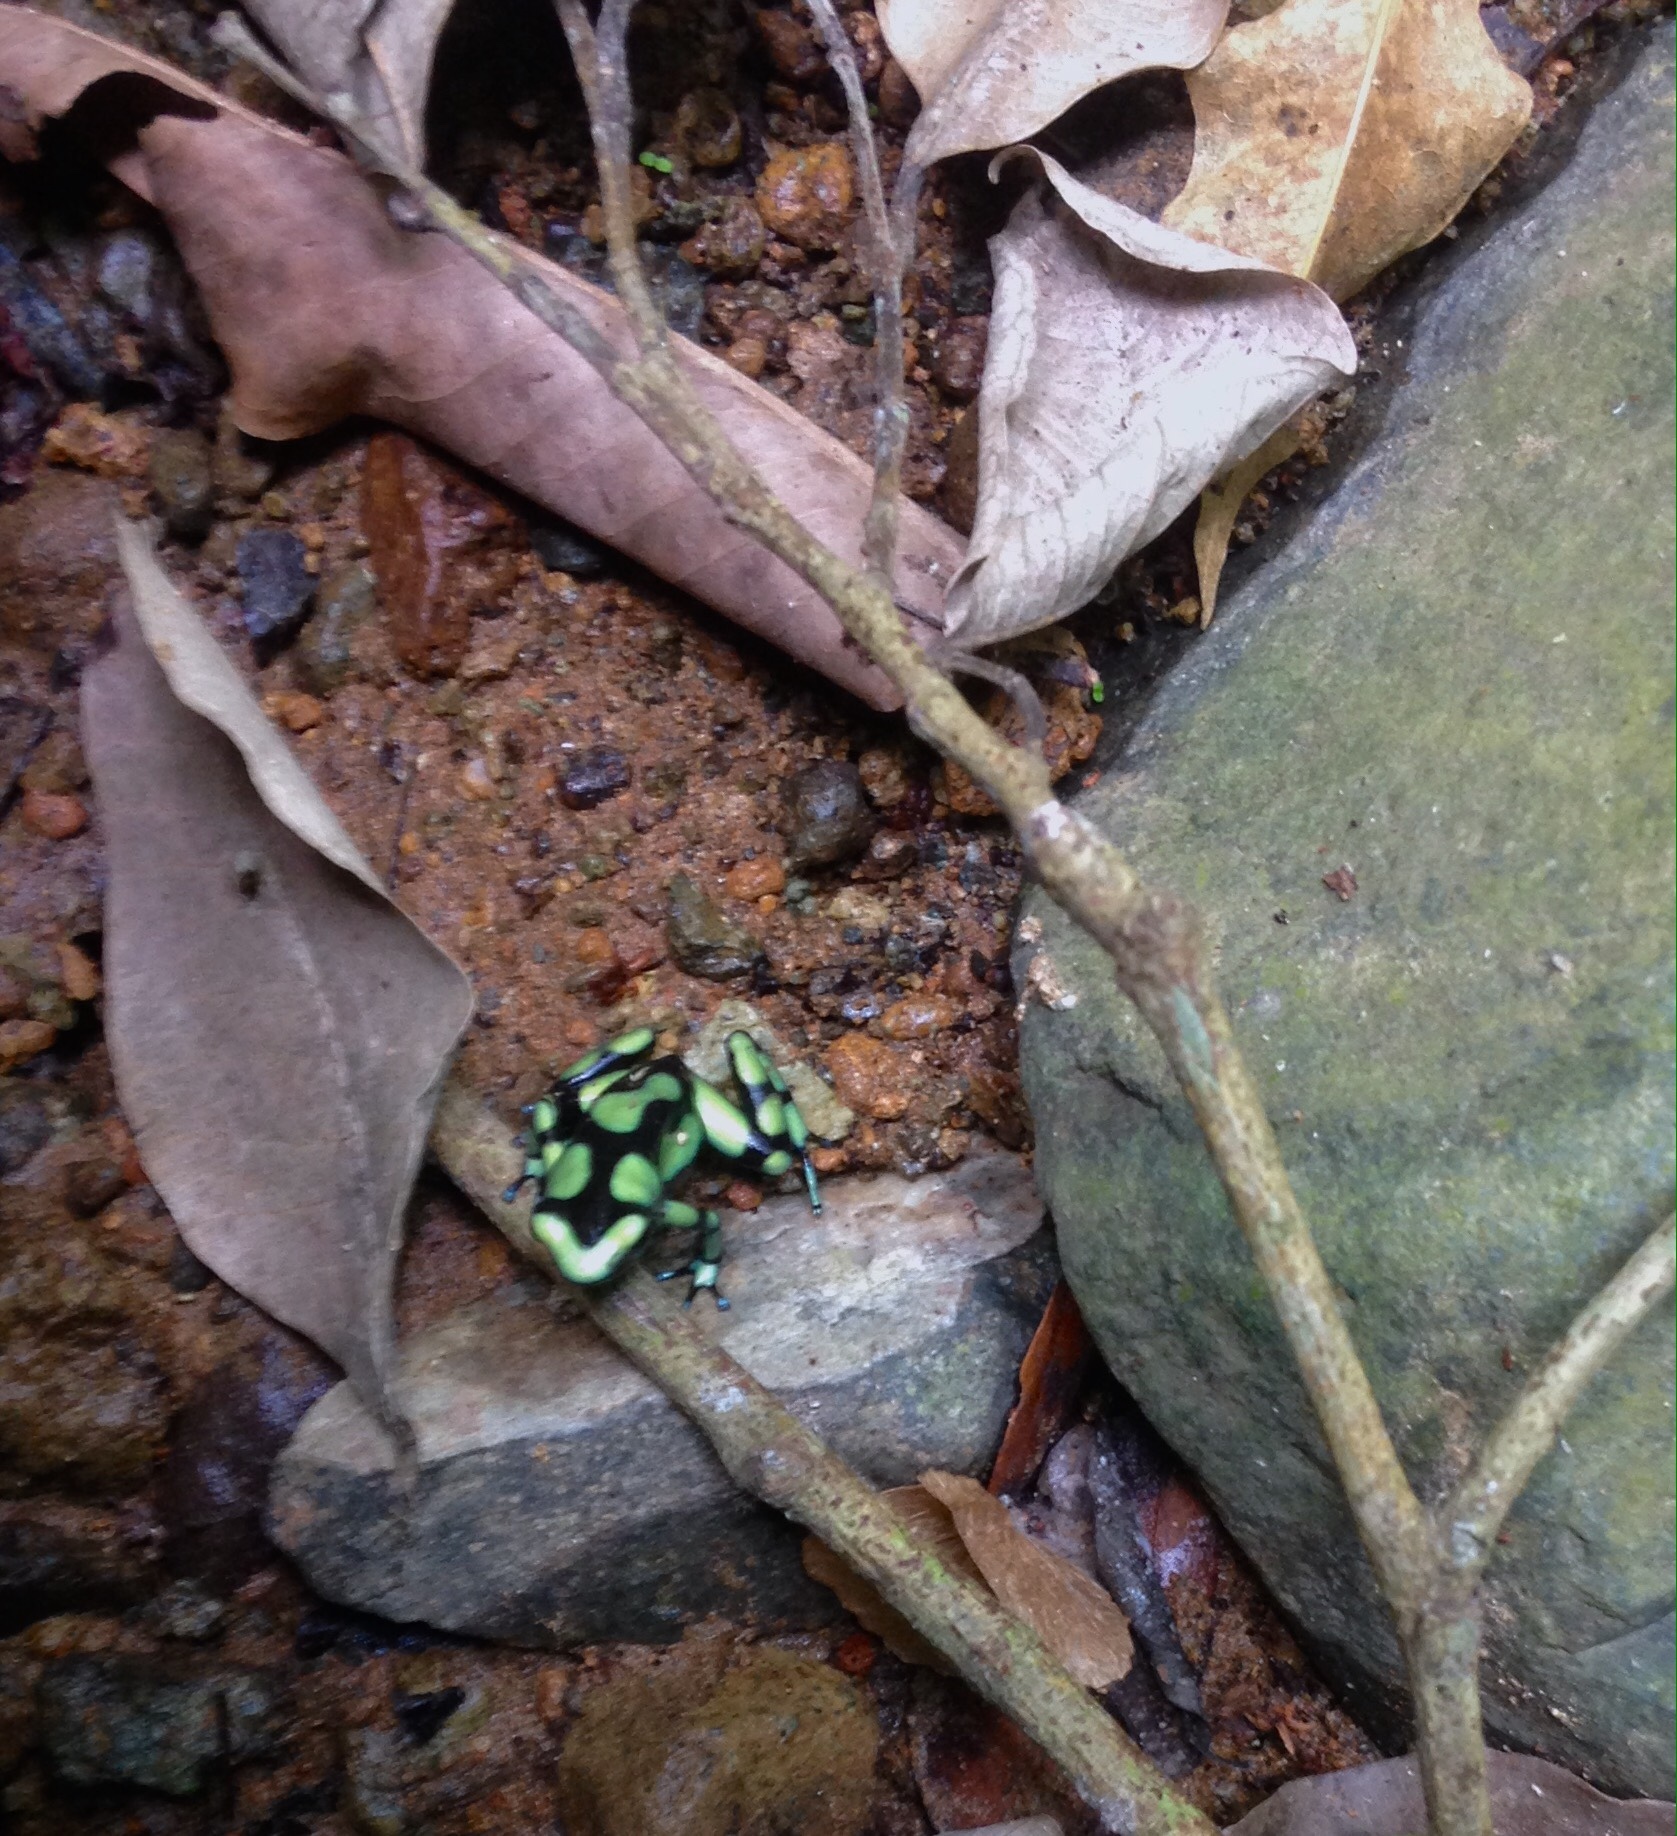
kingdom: Animalia
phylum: Chordata
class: Amphibia
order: Anura
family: Dendrobatidae
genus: Dendrobates
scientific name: Dendrobates auratus
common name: Green and black poison dart frog
